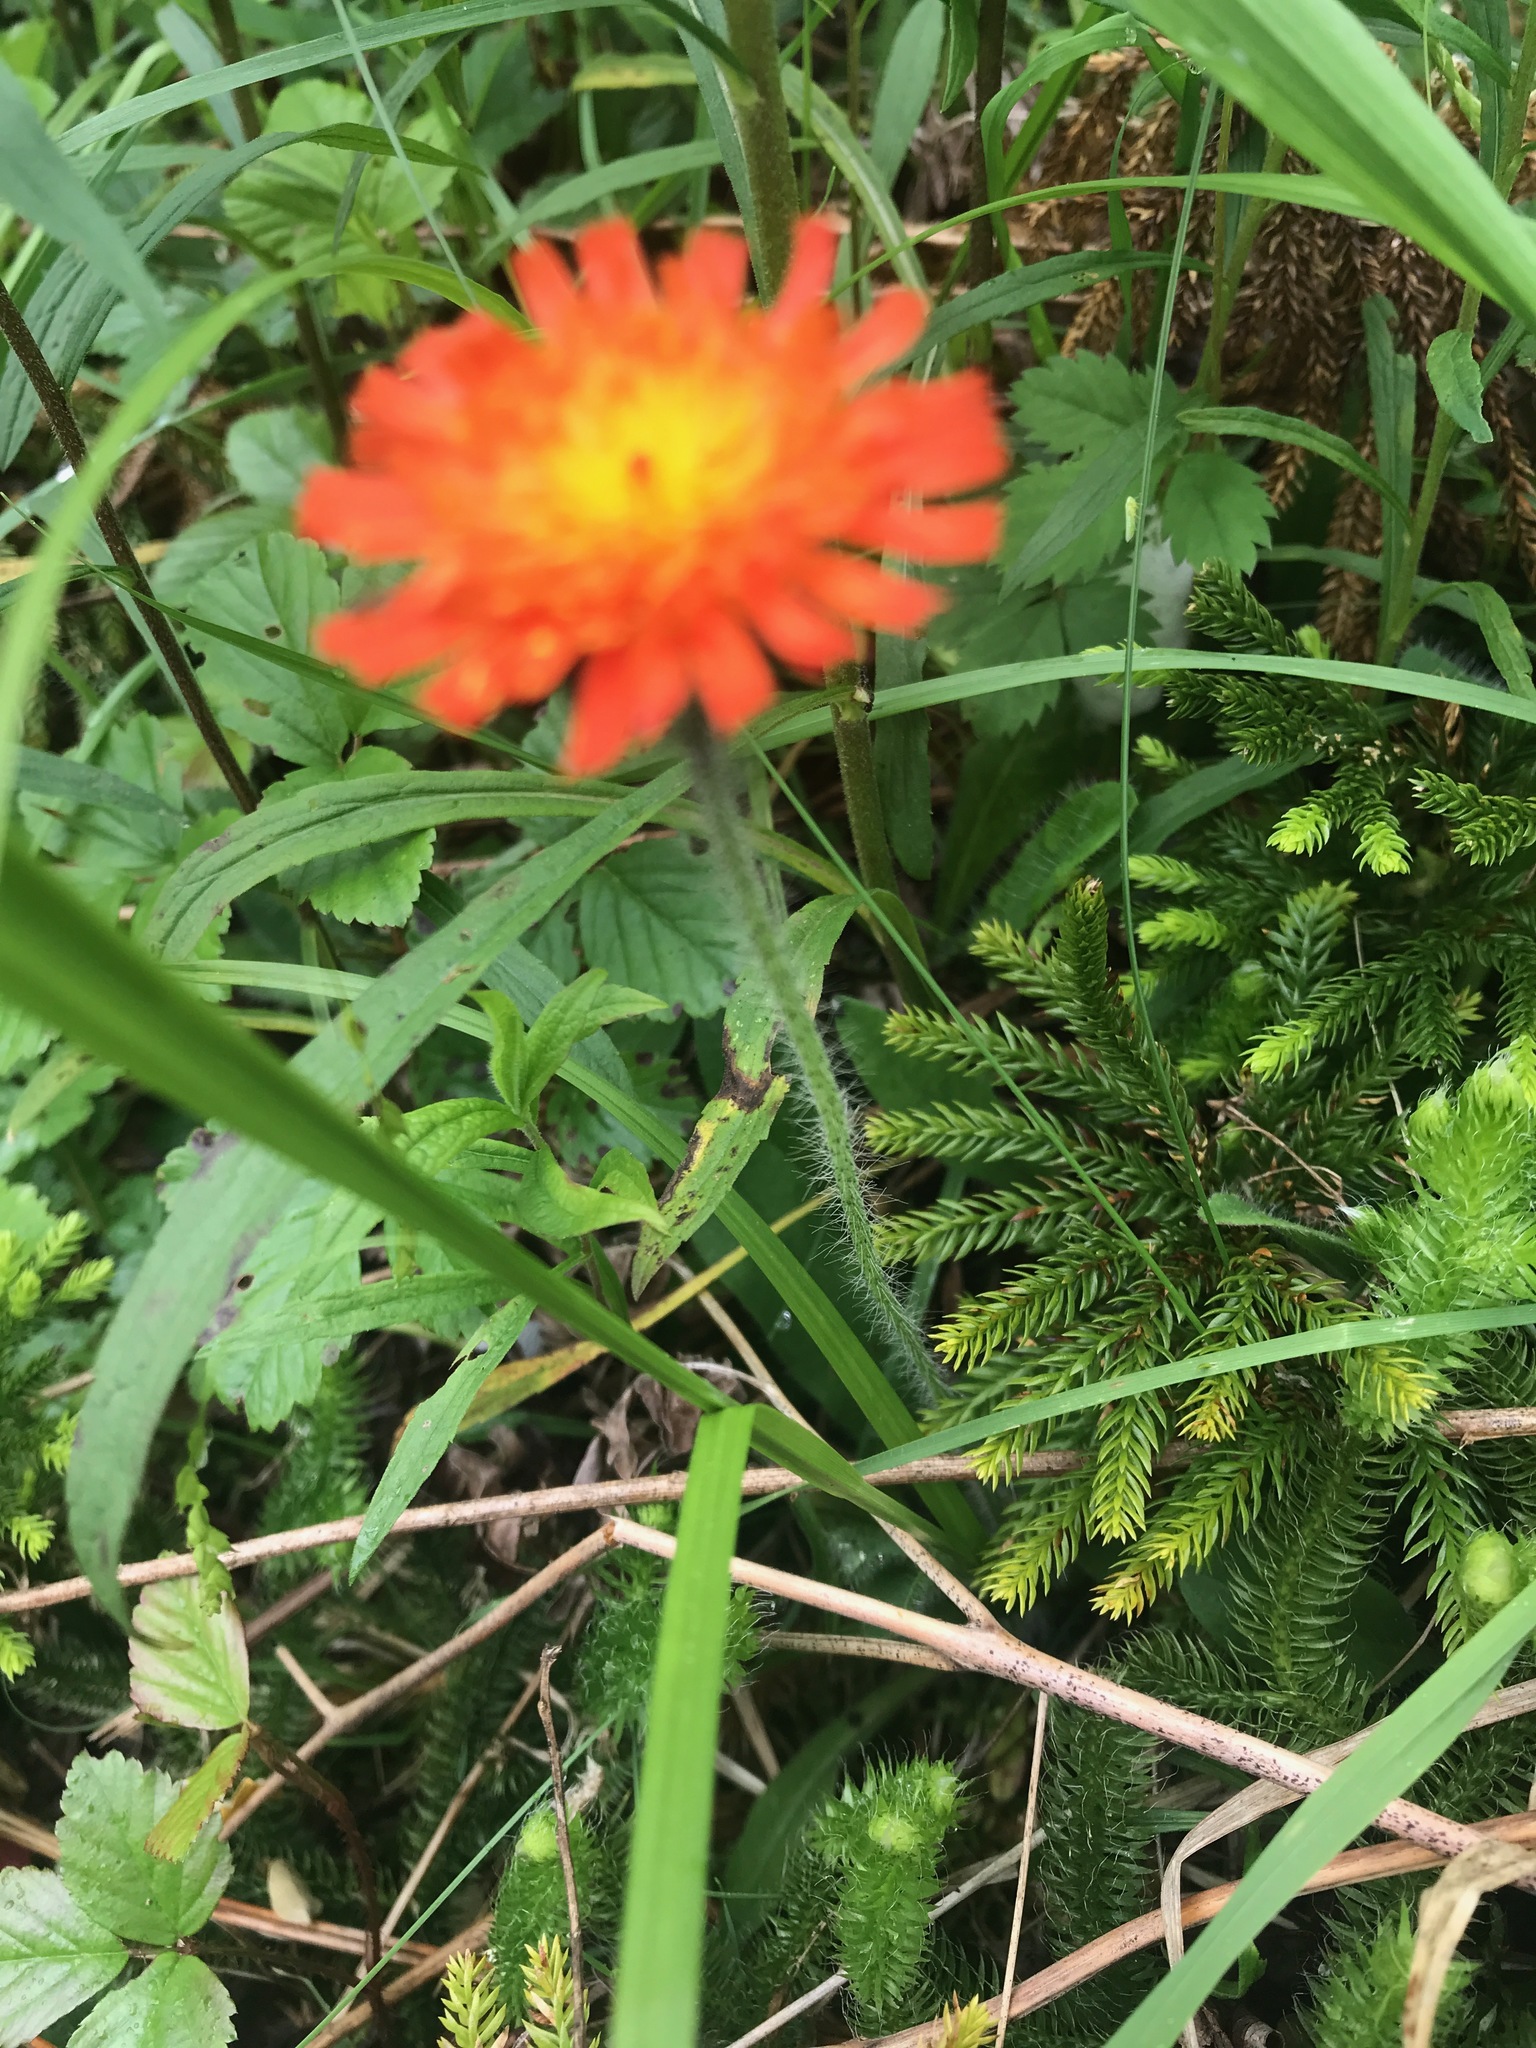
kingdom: Plantae
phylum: Tracheophyta
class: Magnoliopsida
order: Asterales
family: Asteraceae
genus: Pilosella
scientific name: Pilosella aurantiaca
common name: Fox-and-cubs
